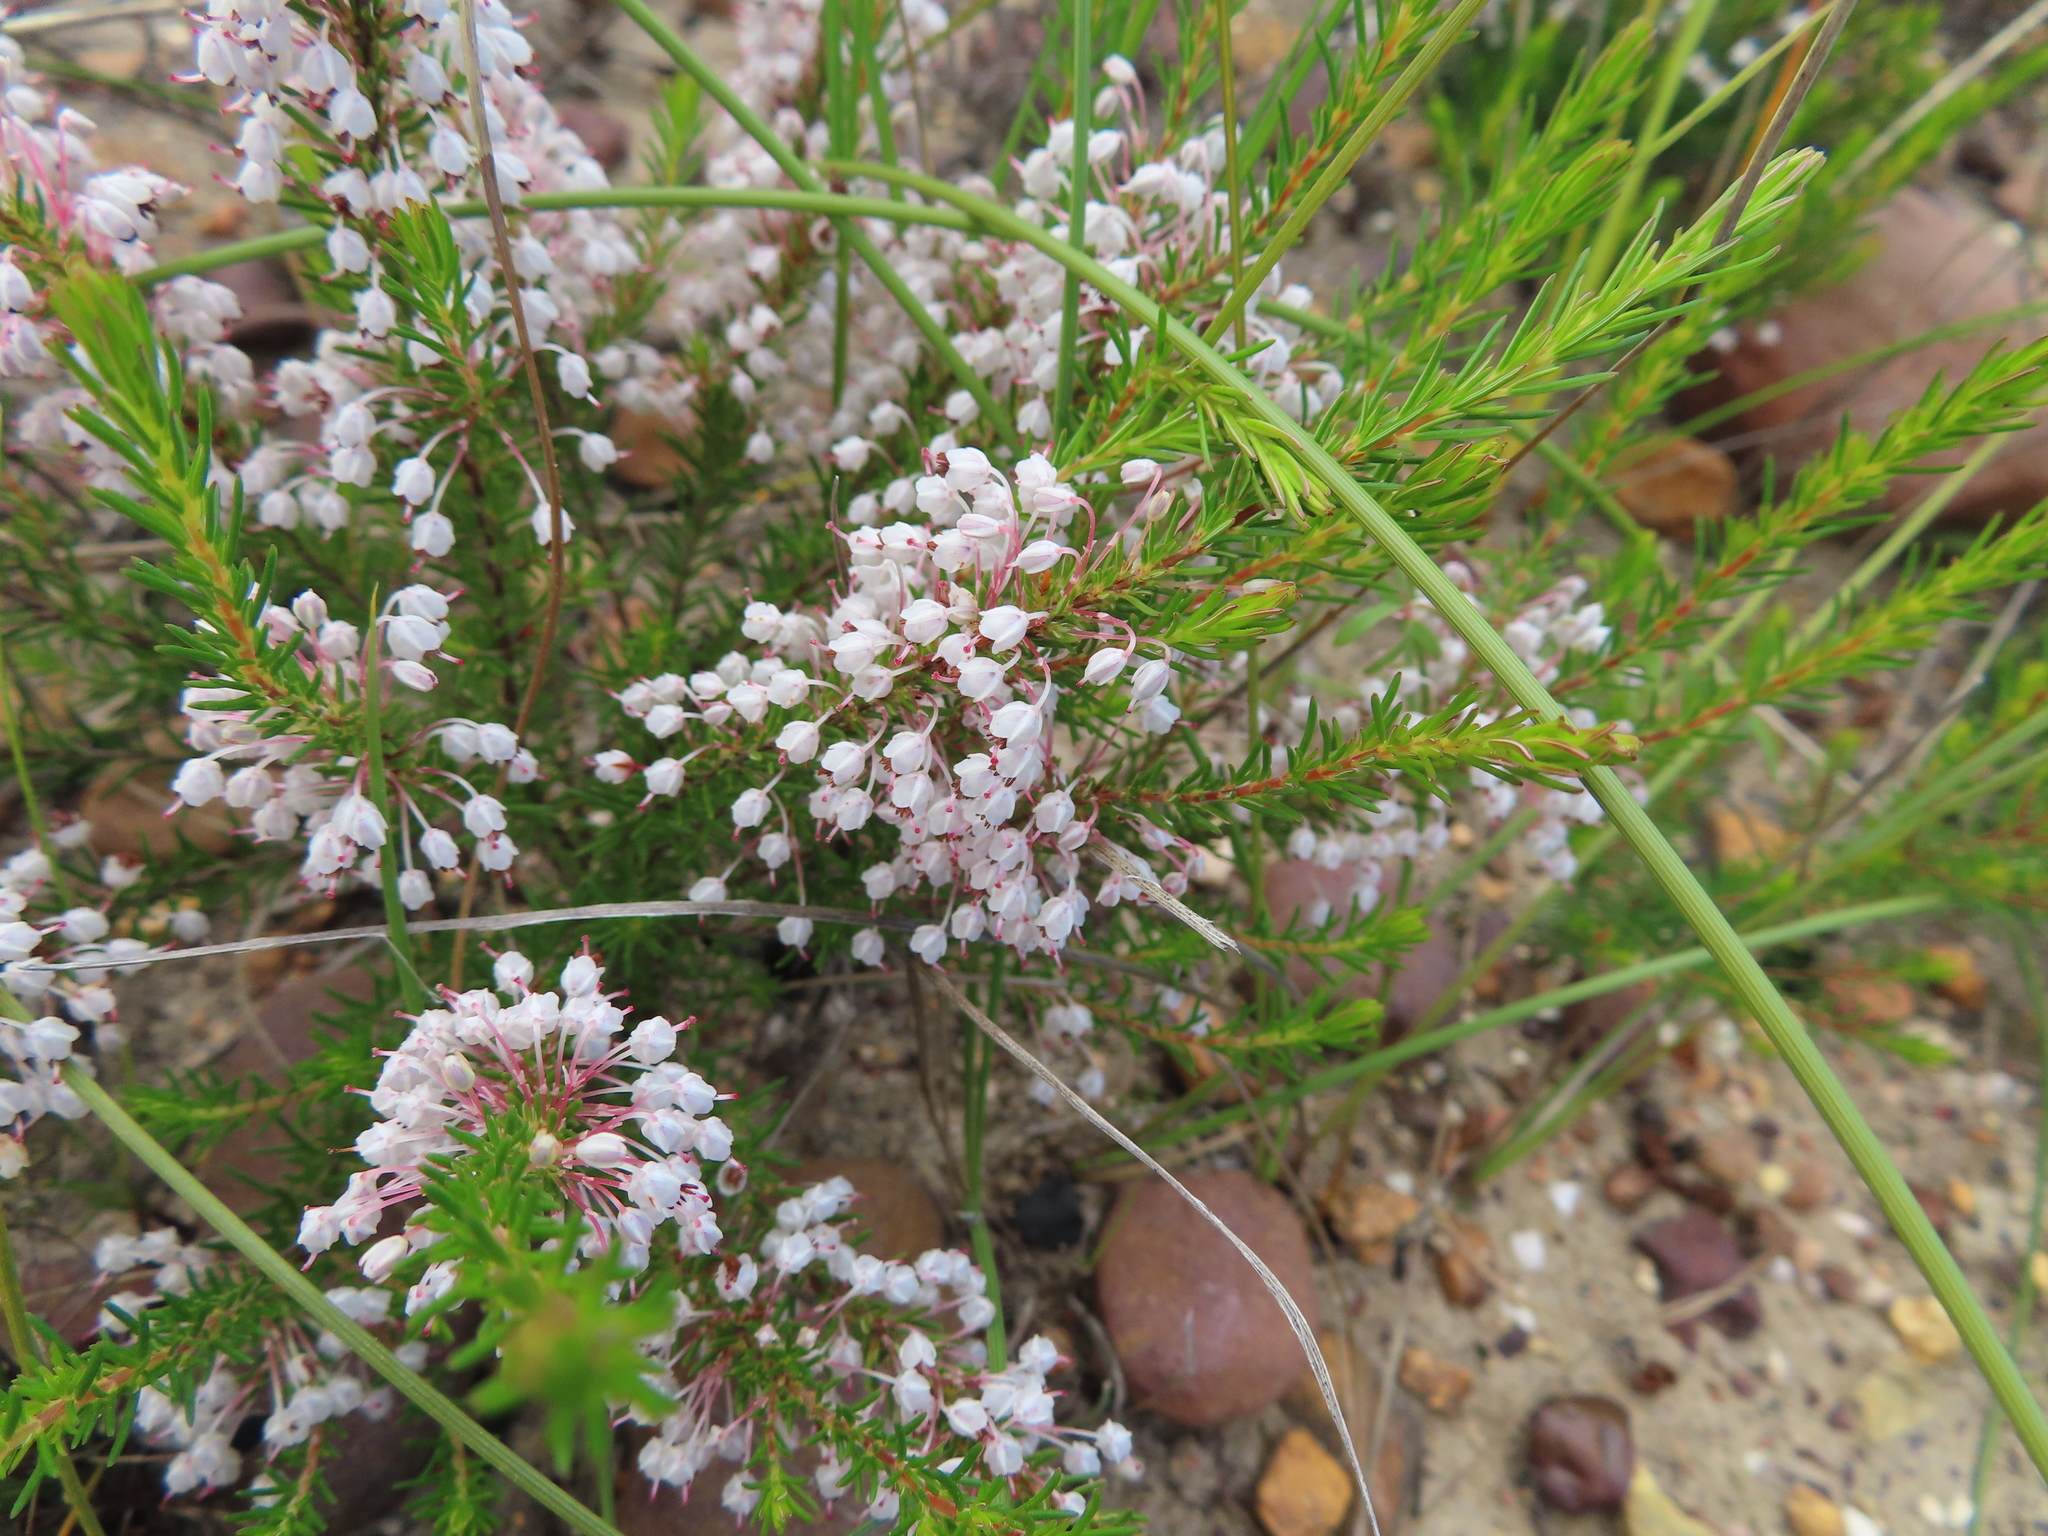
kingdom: Plantae
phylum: Tracheophyta
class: Magnoliopsida
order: Ericales
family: Ericaceae
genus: Erica
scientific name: Erica rubiginosa
